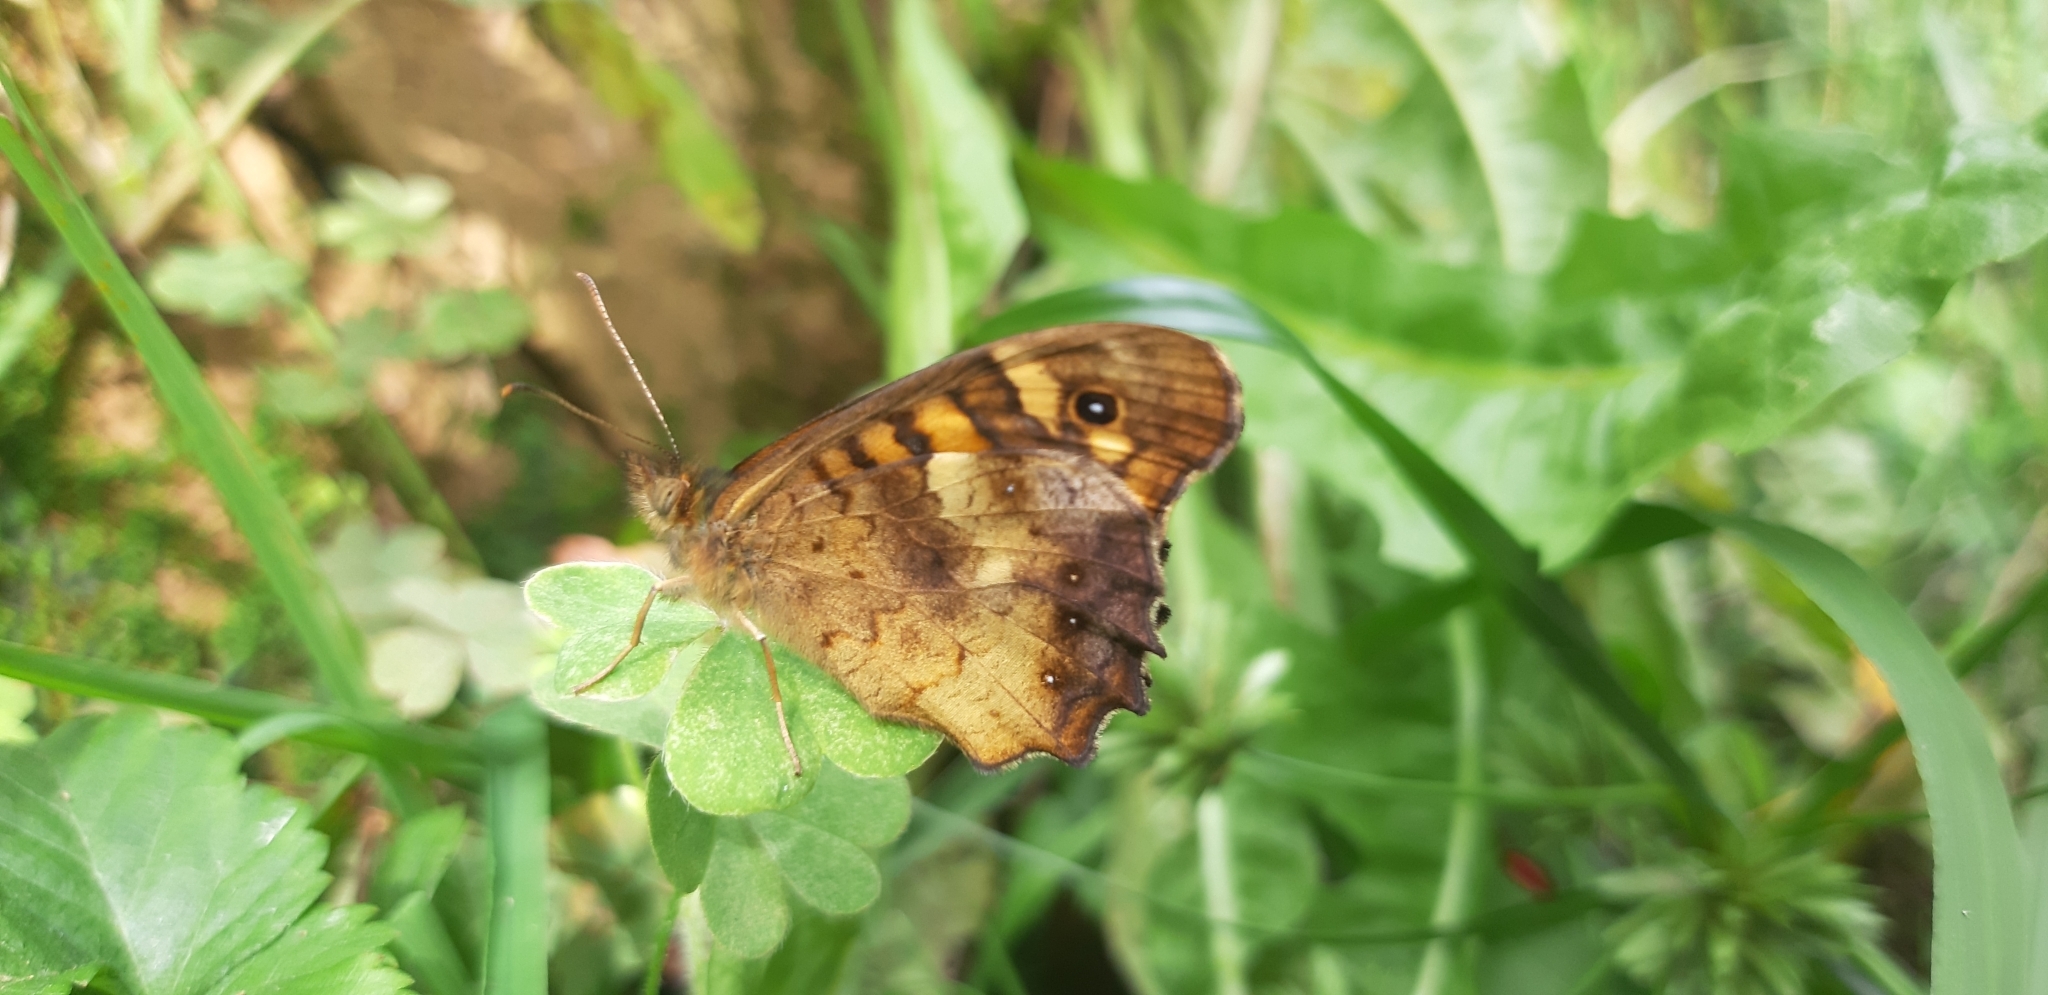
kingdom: Animalia
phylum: Arthropoda
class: Insecta
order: Lepidoptera
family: Nymphalidae
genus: Pararge
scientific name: Pararge aegeria
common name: Speckled wood
